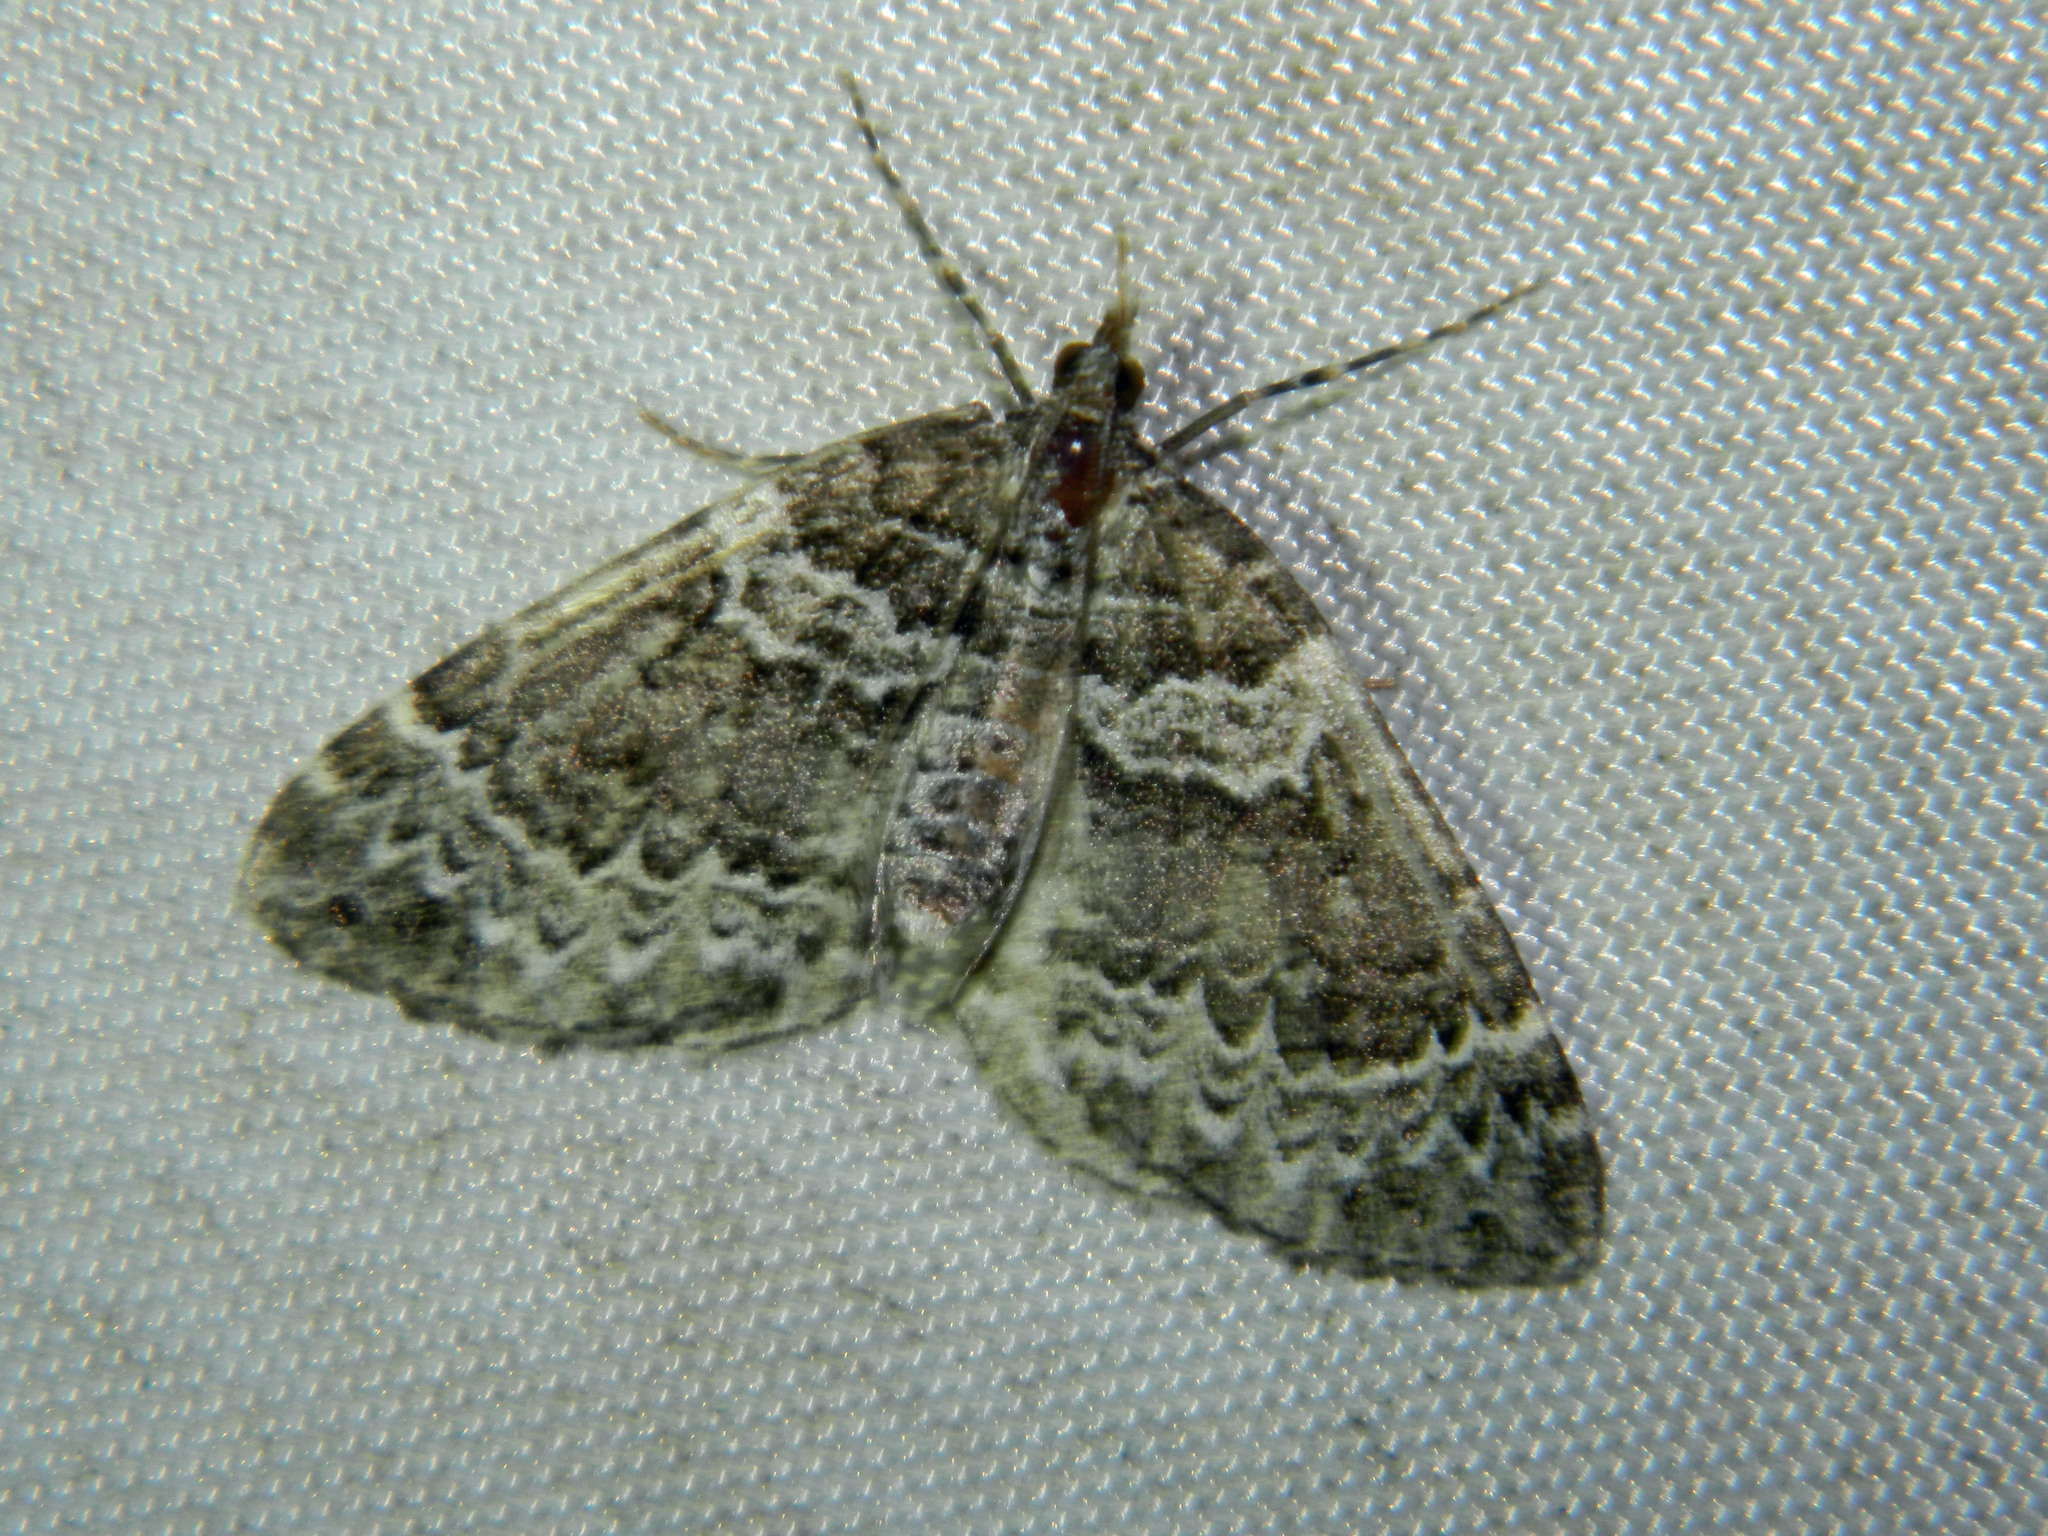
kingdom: Animalia
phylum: Arthropoda
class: Insecta
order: Lepidoptera
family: Geometridae
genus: Eulithis
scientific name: Eulithis explanata
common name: White eulithis
